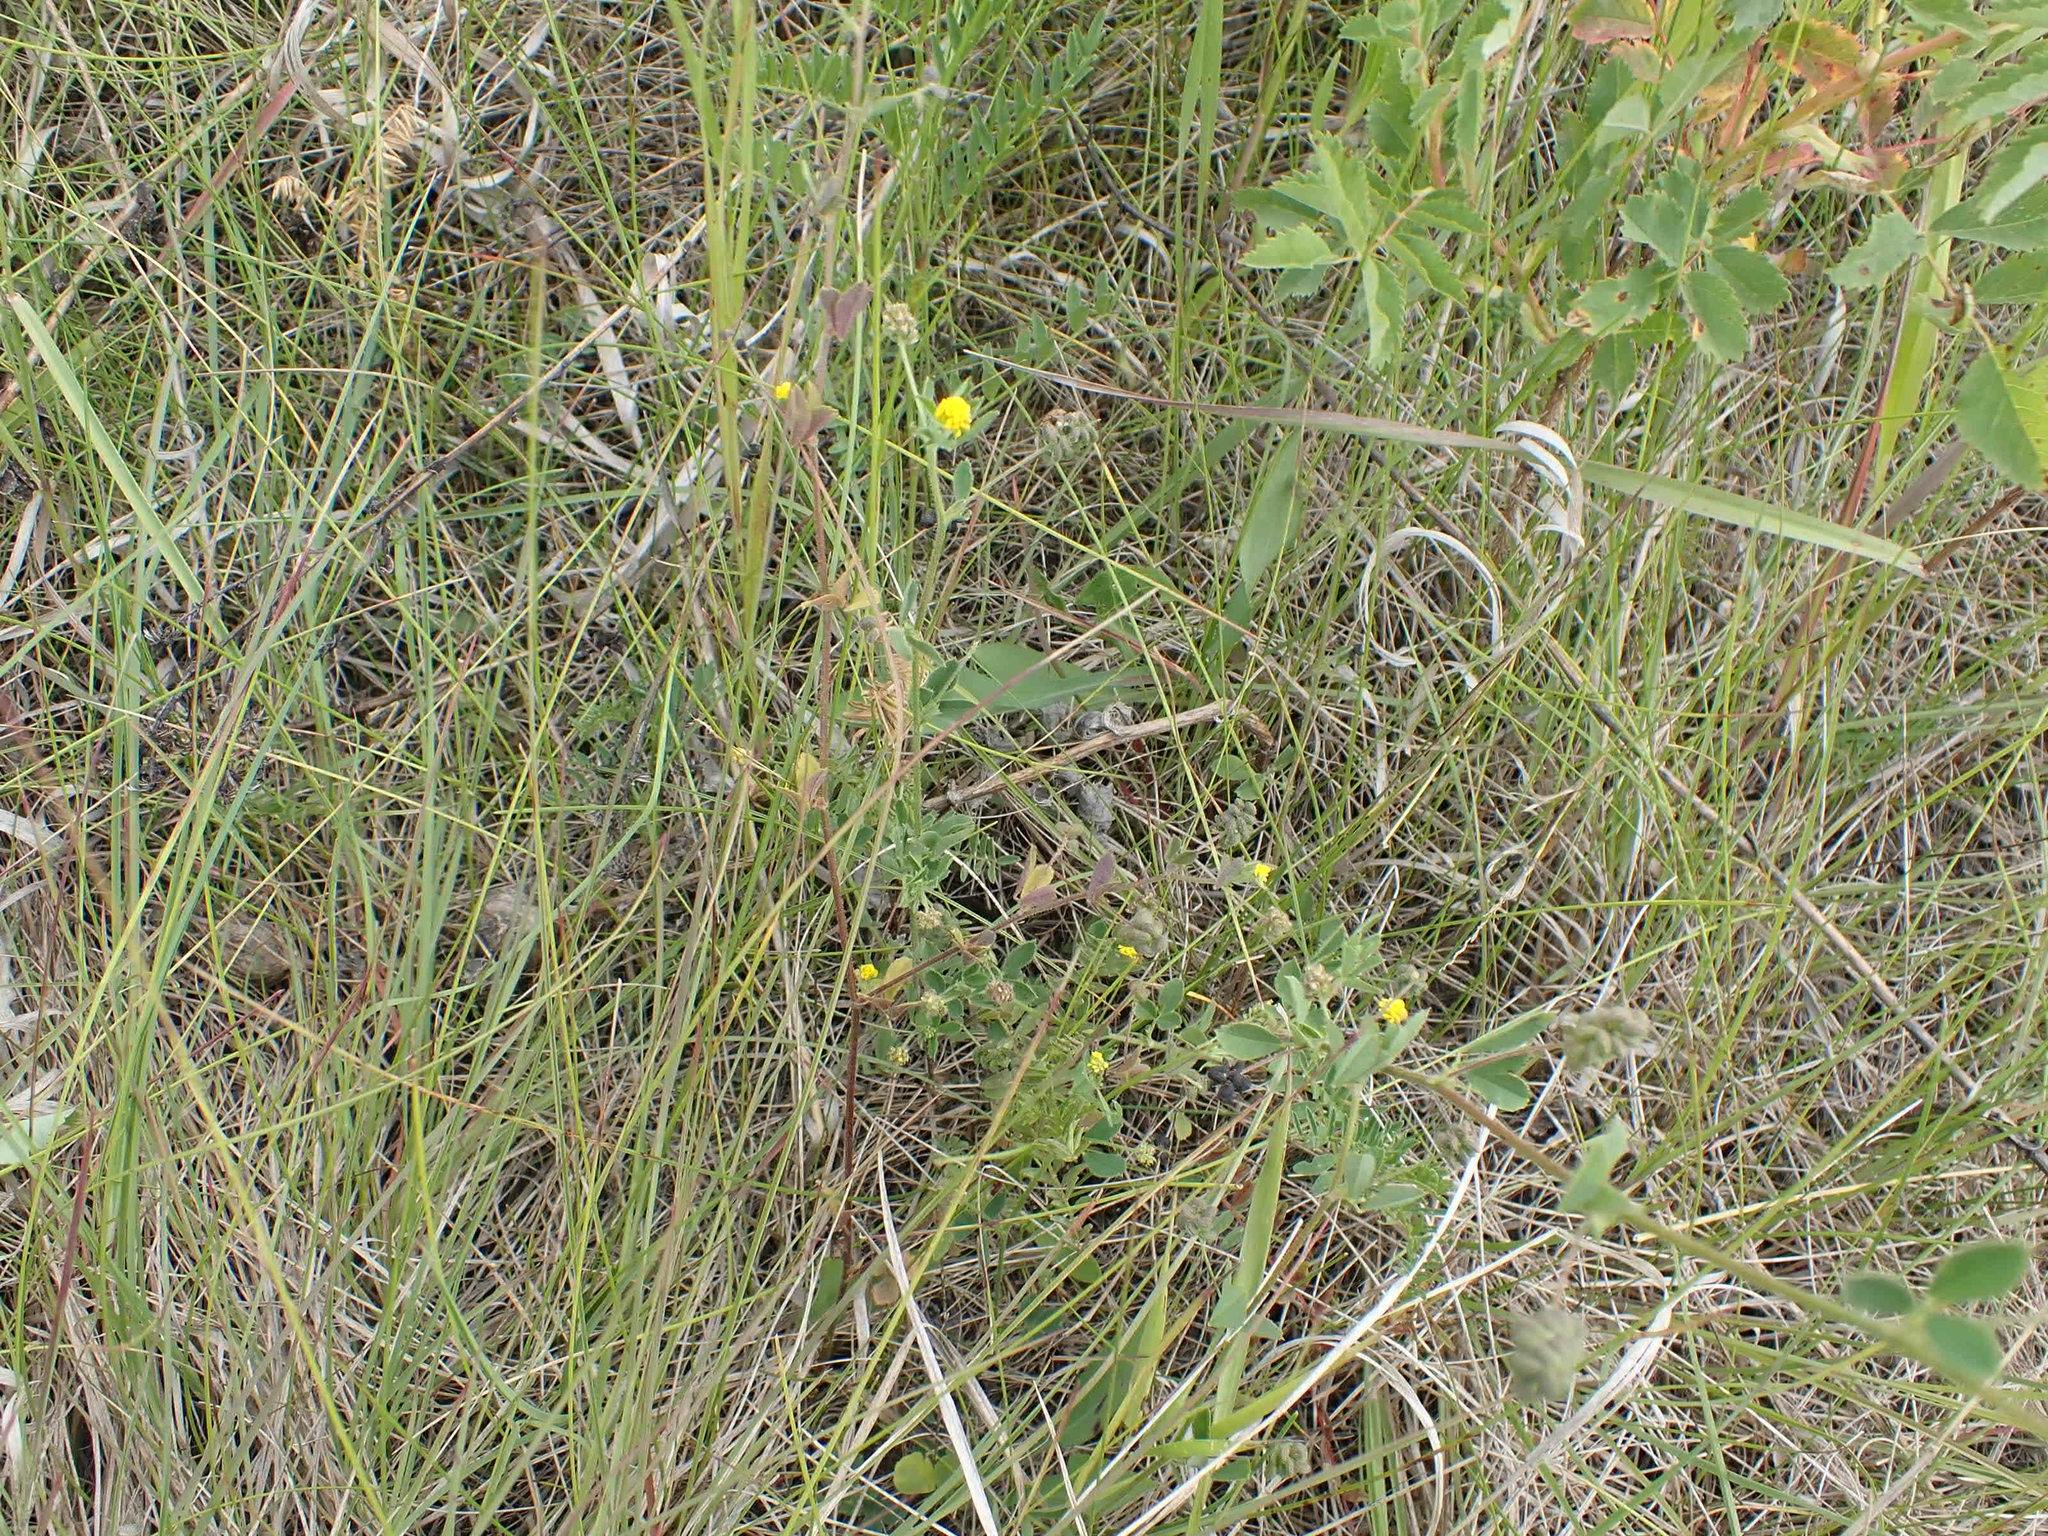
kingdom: Plantae
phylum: Tracheophyta
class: Magnoliopsida
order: Fabales
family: Fabaceae
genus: Medicago
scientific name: Medicago lupulina
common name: Black medick
